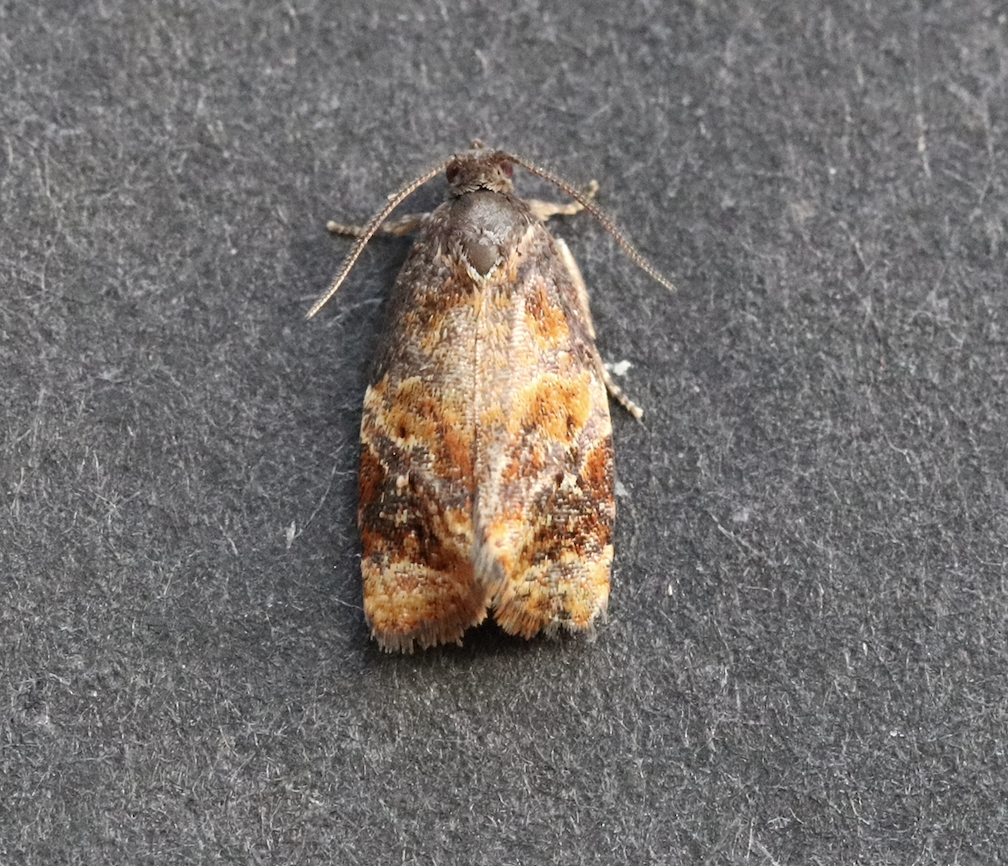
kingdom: Animalia
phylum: Arthropoda
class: Insecta
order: Lepidoptera
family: Tortricidae
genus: Ditula
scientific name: Ditula angustiorana
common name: Red-barred tortrix
